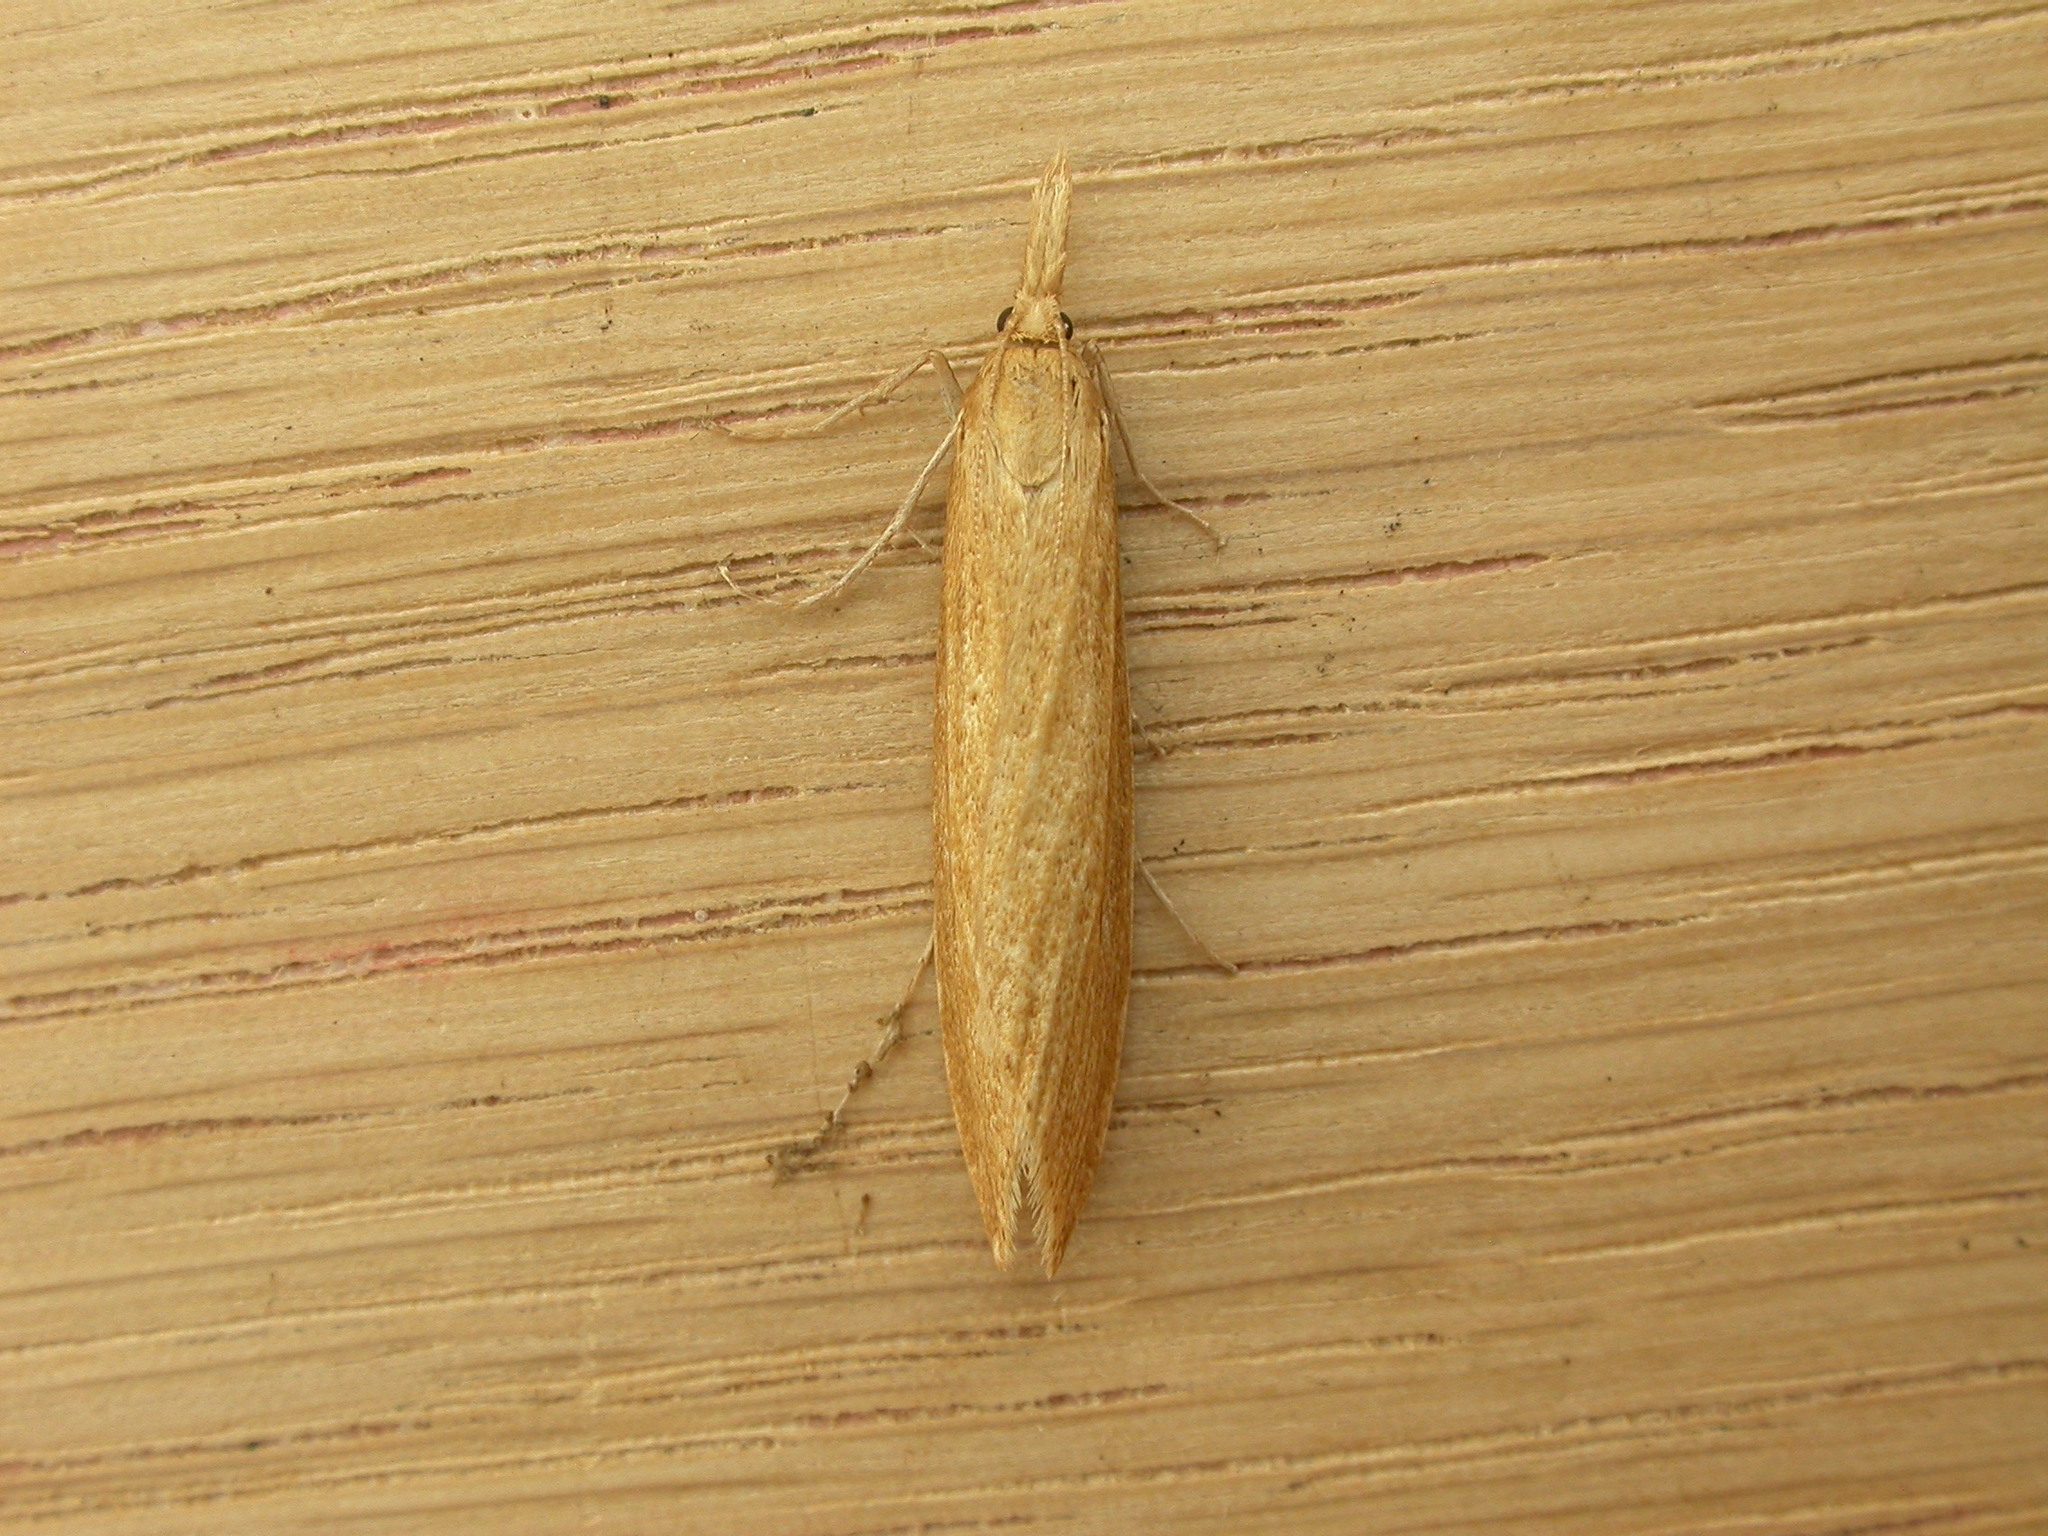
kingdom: Animalia
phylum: Arthropoda
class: Insecta
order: Lepidoptera
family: Crambidae
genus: Chilo
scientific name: Chilo phragmitella
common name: Reed veneer
